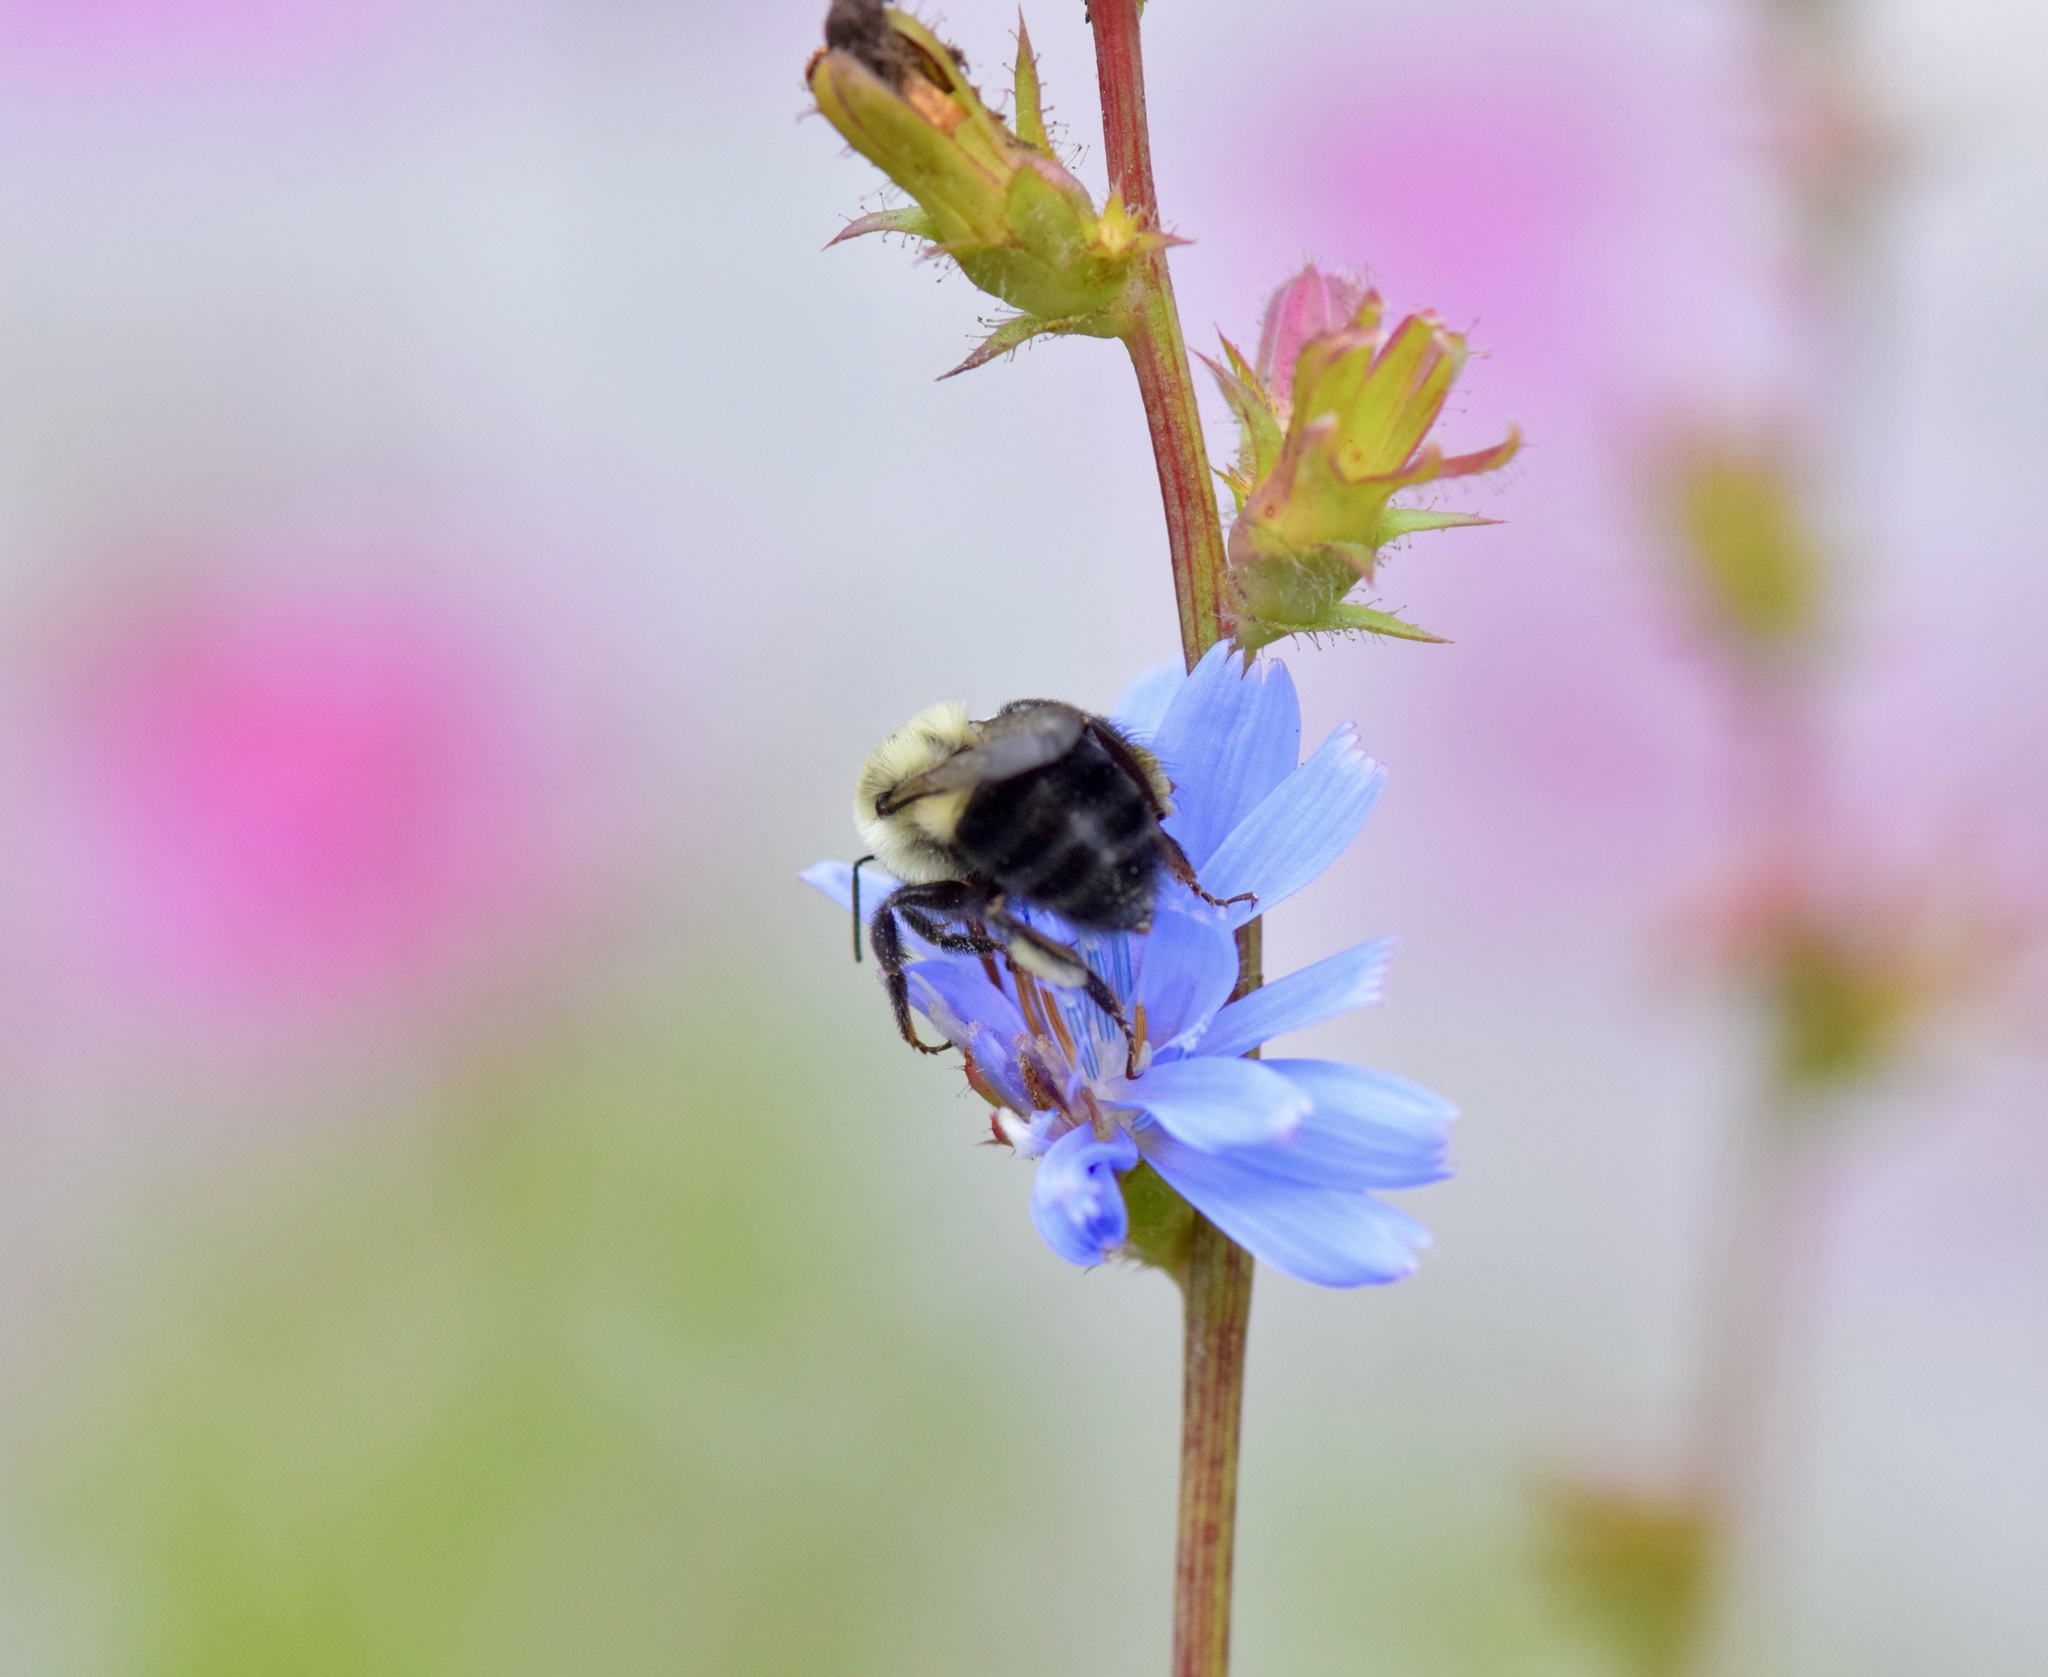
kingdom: Animalia
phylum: Arthropoda
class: Insecta
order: Hymenoptera
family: Apidae
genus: Bombus
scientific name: Bombus impatiens
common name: Common eastern bumble bee
